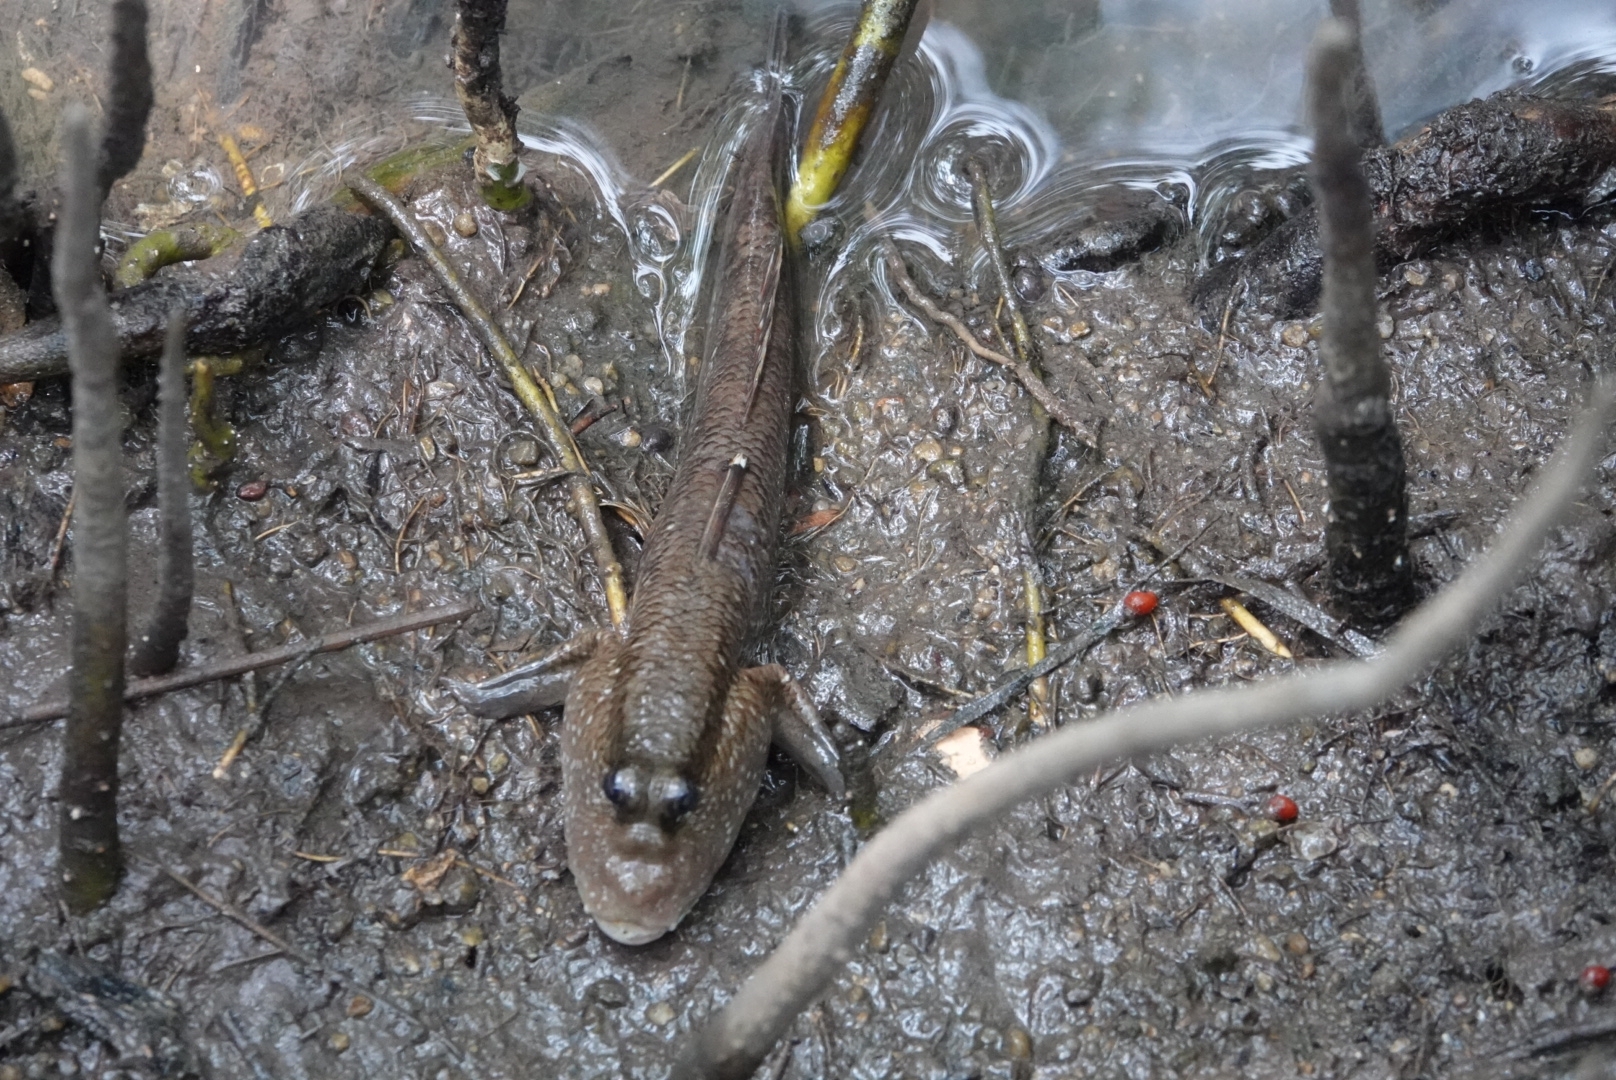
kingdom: Animalia
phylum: Chordata
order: Perciformes
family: Gobiidae
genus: Periophthalmodon
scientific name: Periophthalmodon schlosseri
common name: Giant mudskipper
